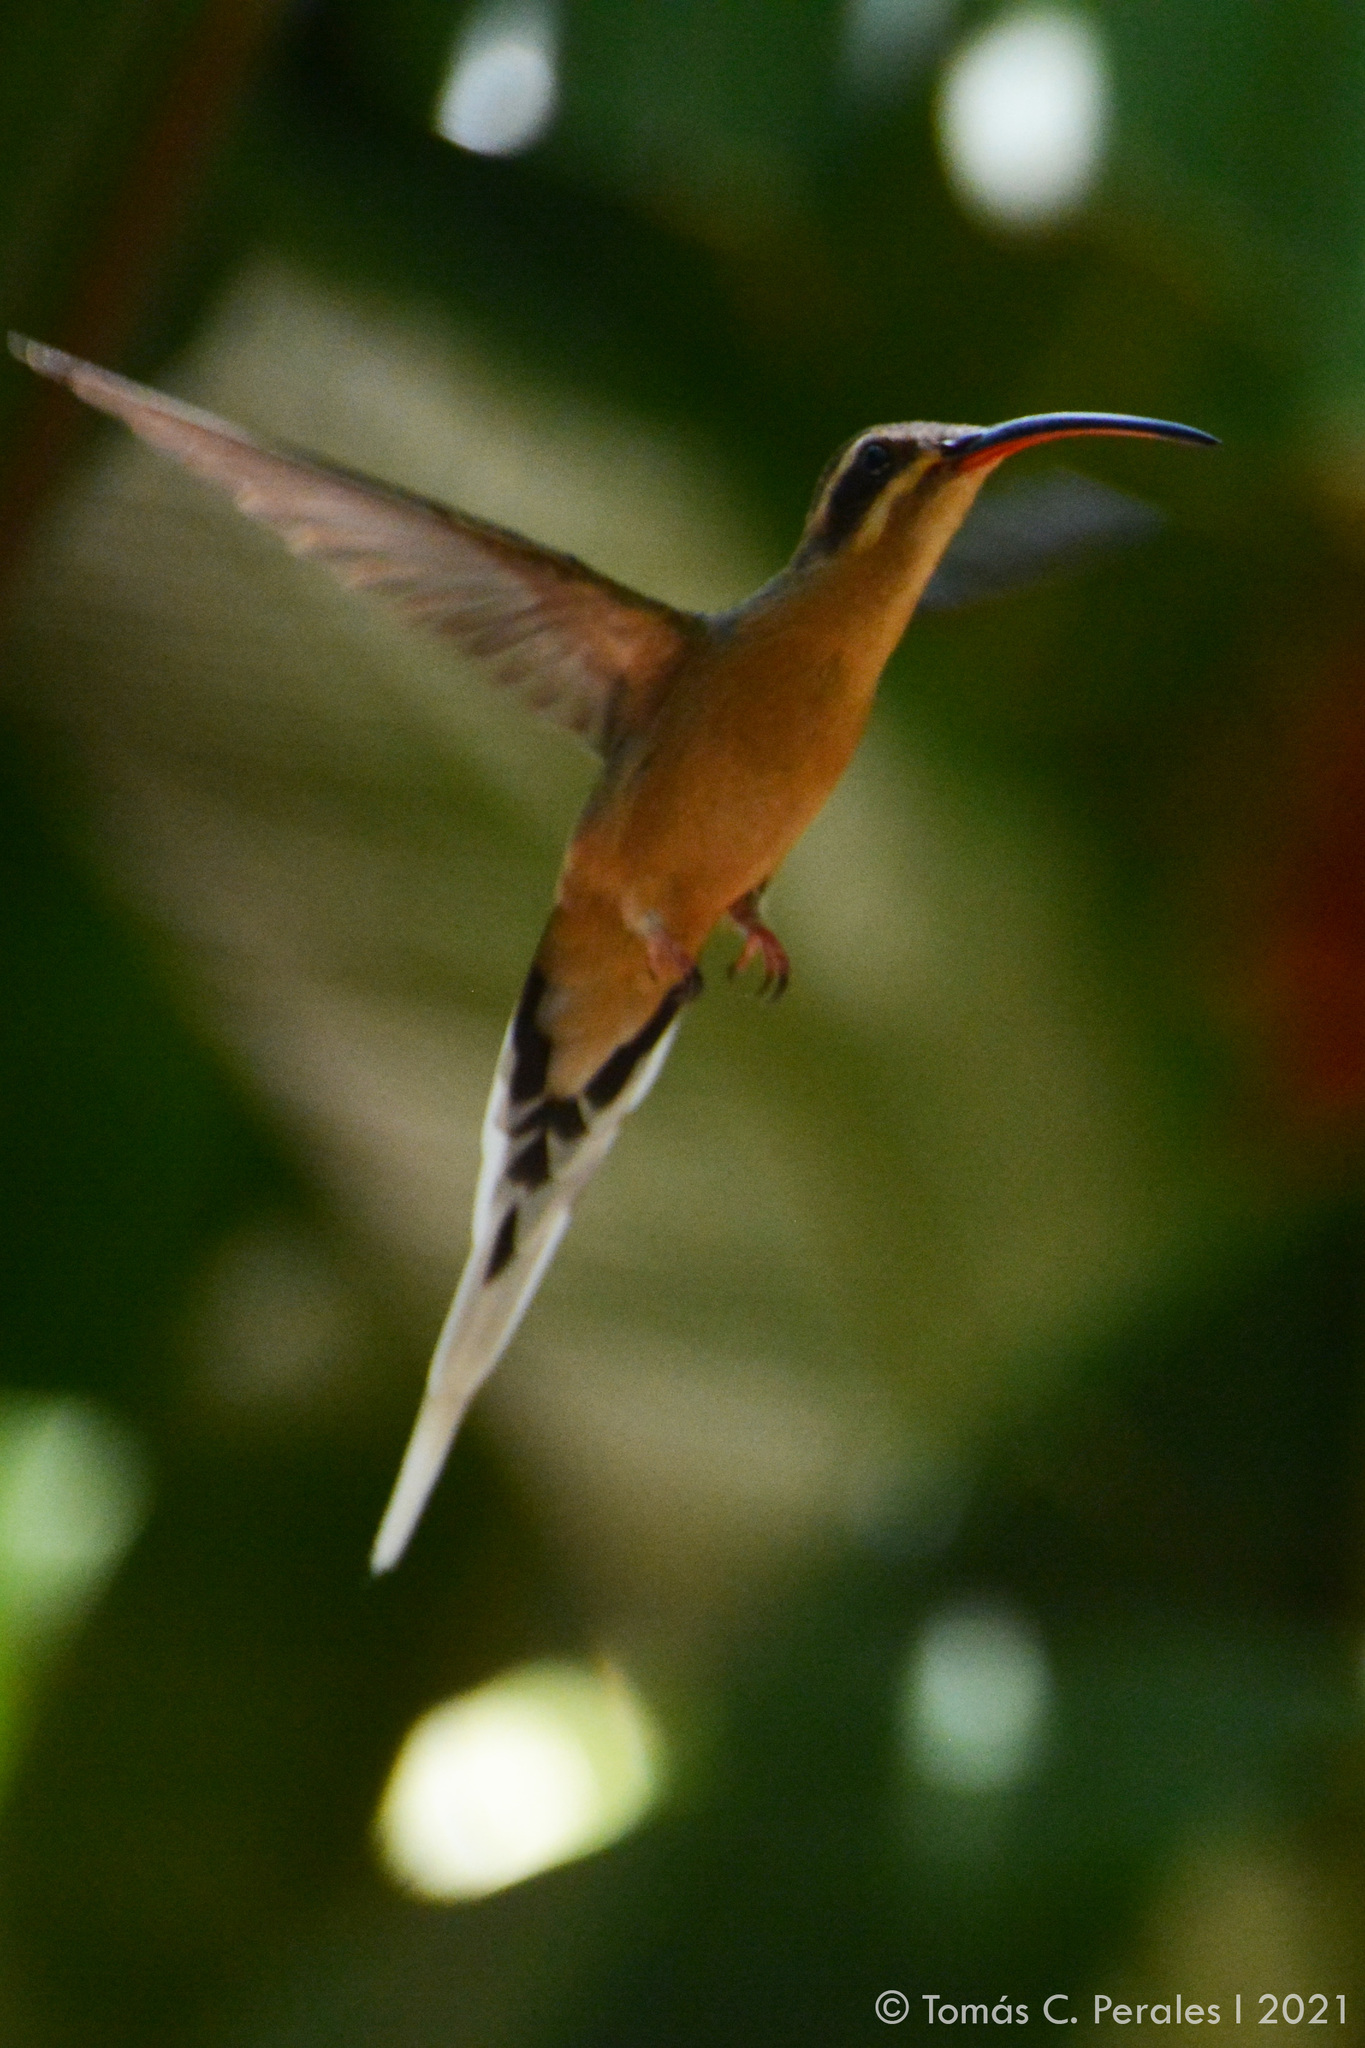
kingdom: Animalia
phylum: Chordata
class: Aves
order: Apodiformes
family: Trochilidae
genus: Phaethornis
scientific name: Phaethornis pretrei
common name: Planalto hermit
